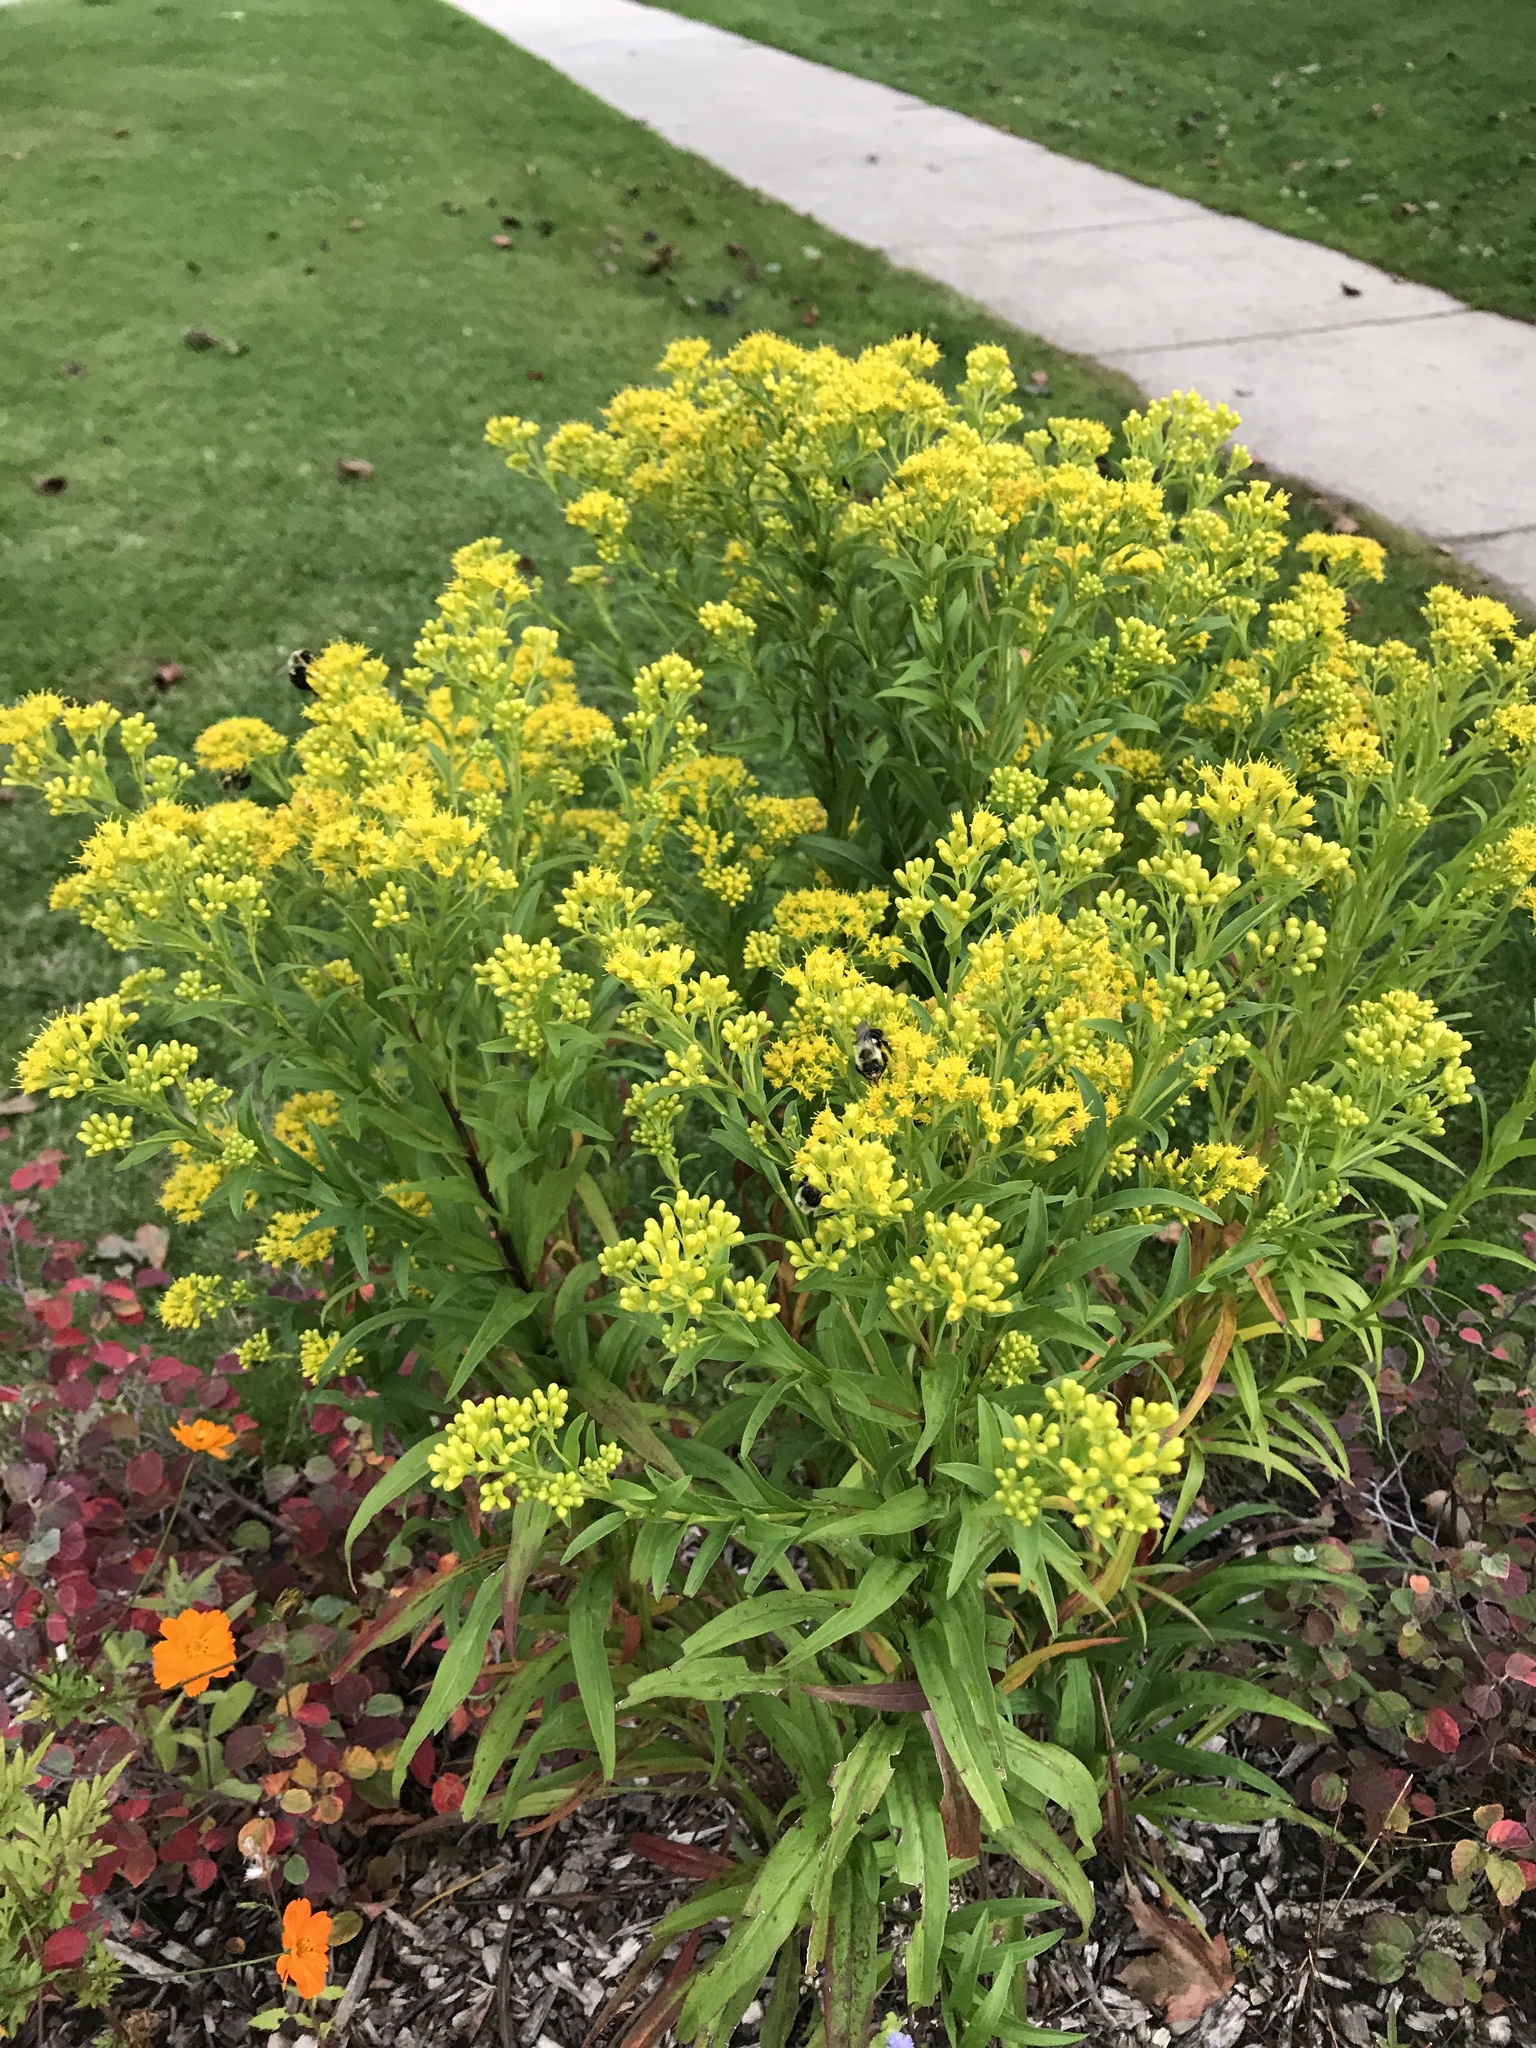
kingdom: Animalia
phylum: Arthropoda
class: Insecta
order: Hymenoptera
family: Apidae
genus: Bombus
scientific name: Bombus impatiens
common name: Common eastern bumble bee
